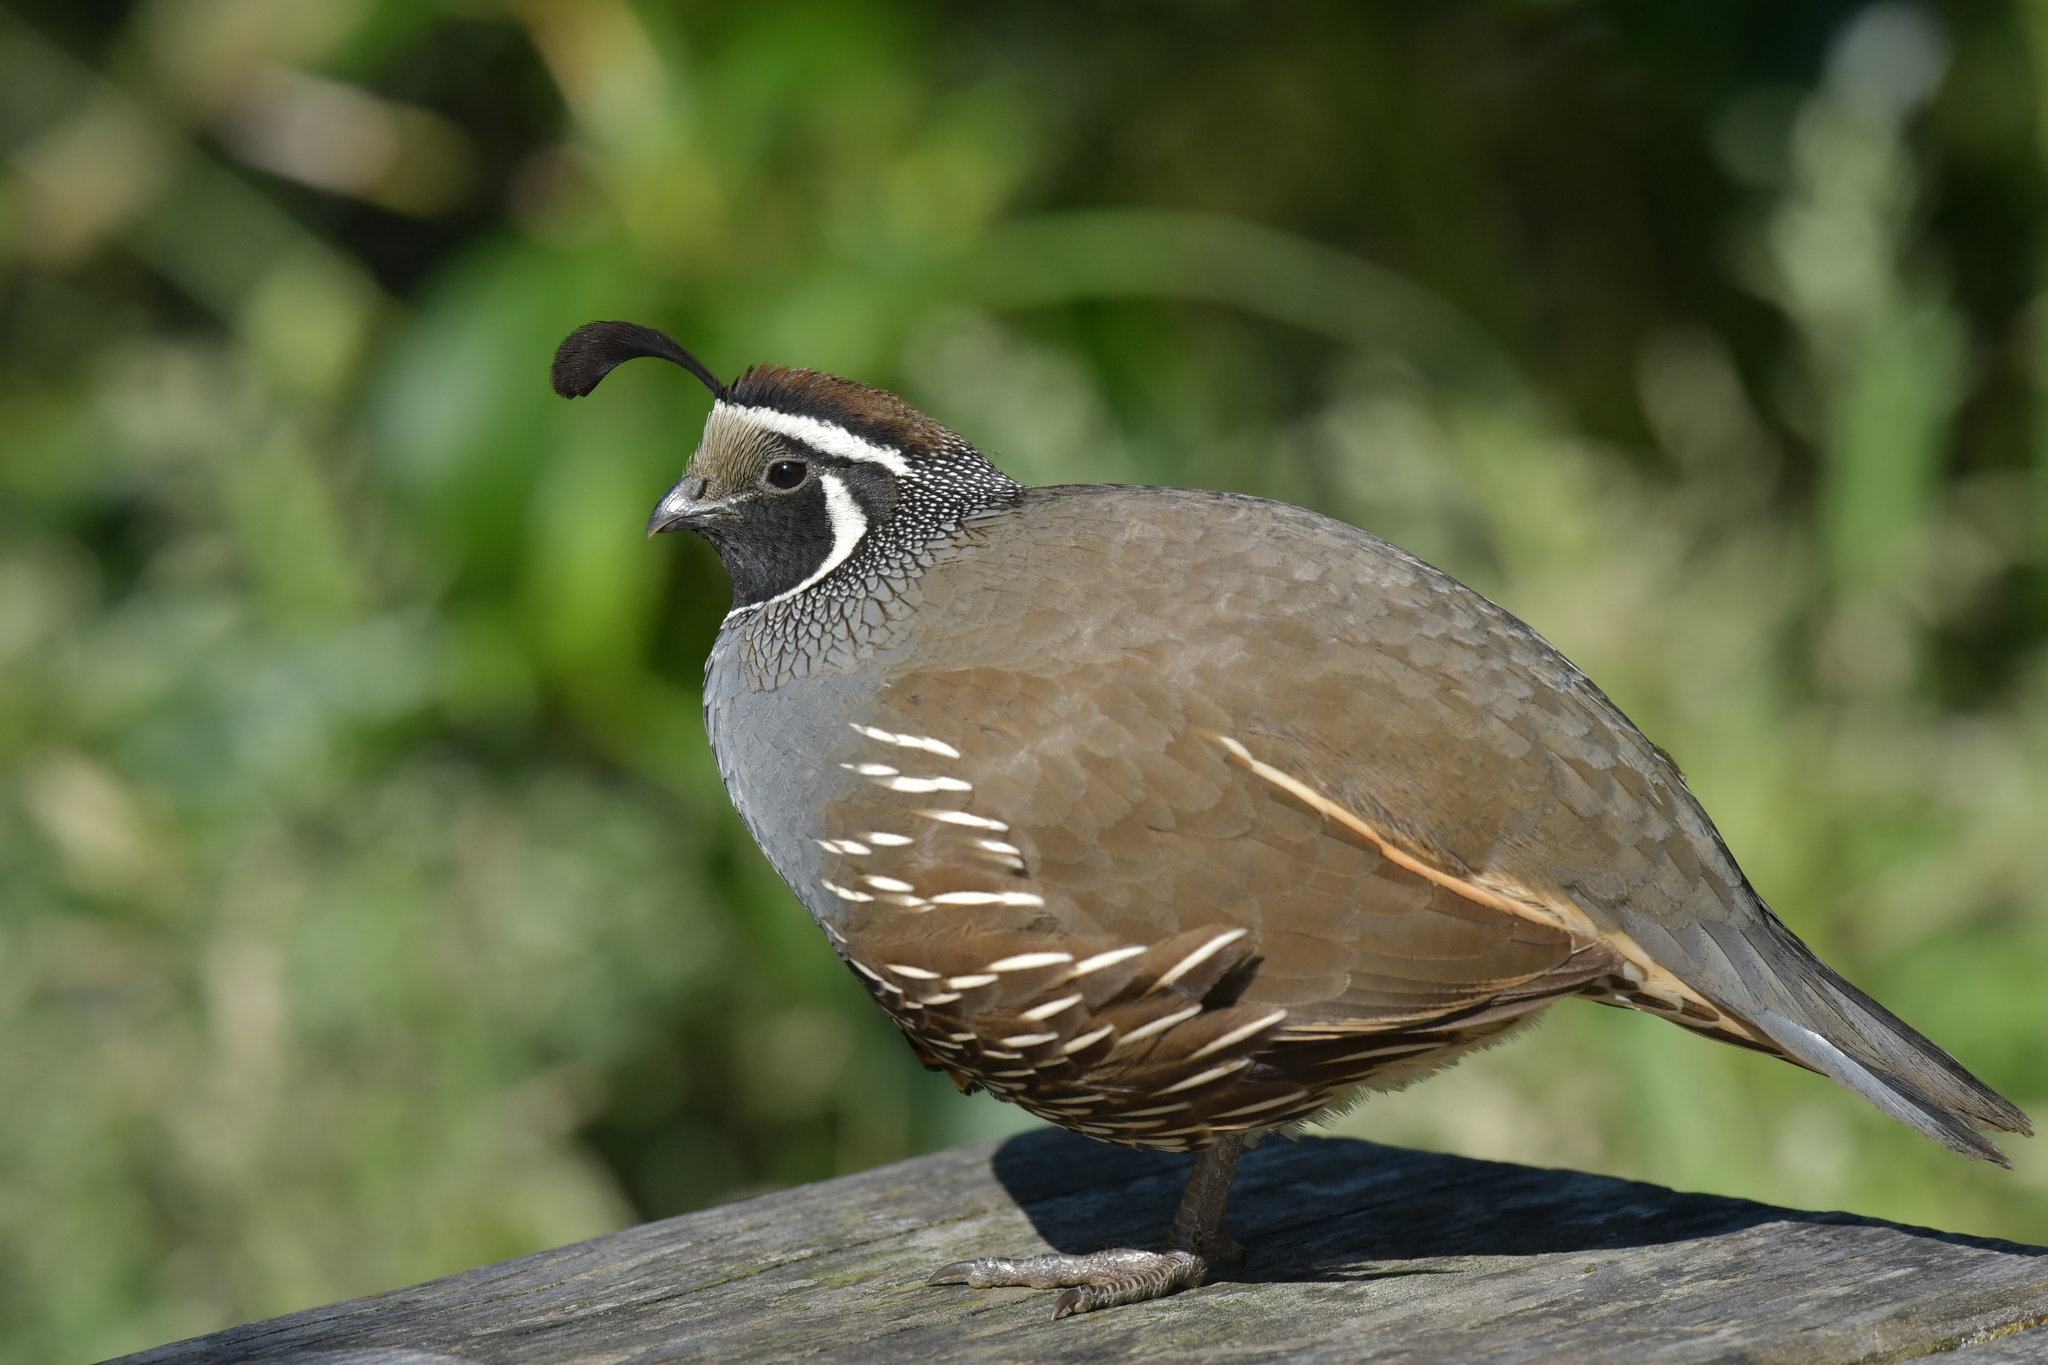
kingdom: Animalia
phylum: Chordata
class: Aves
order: Galliformes
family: Odontophoridae
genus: Callipepla
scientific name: Callipepla californica
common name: California quail
